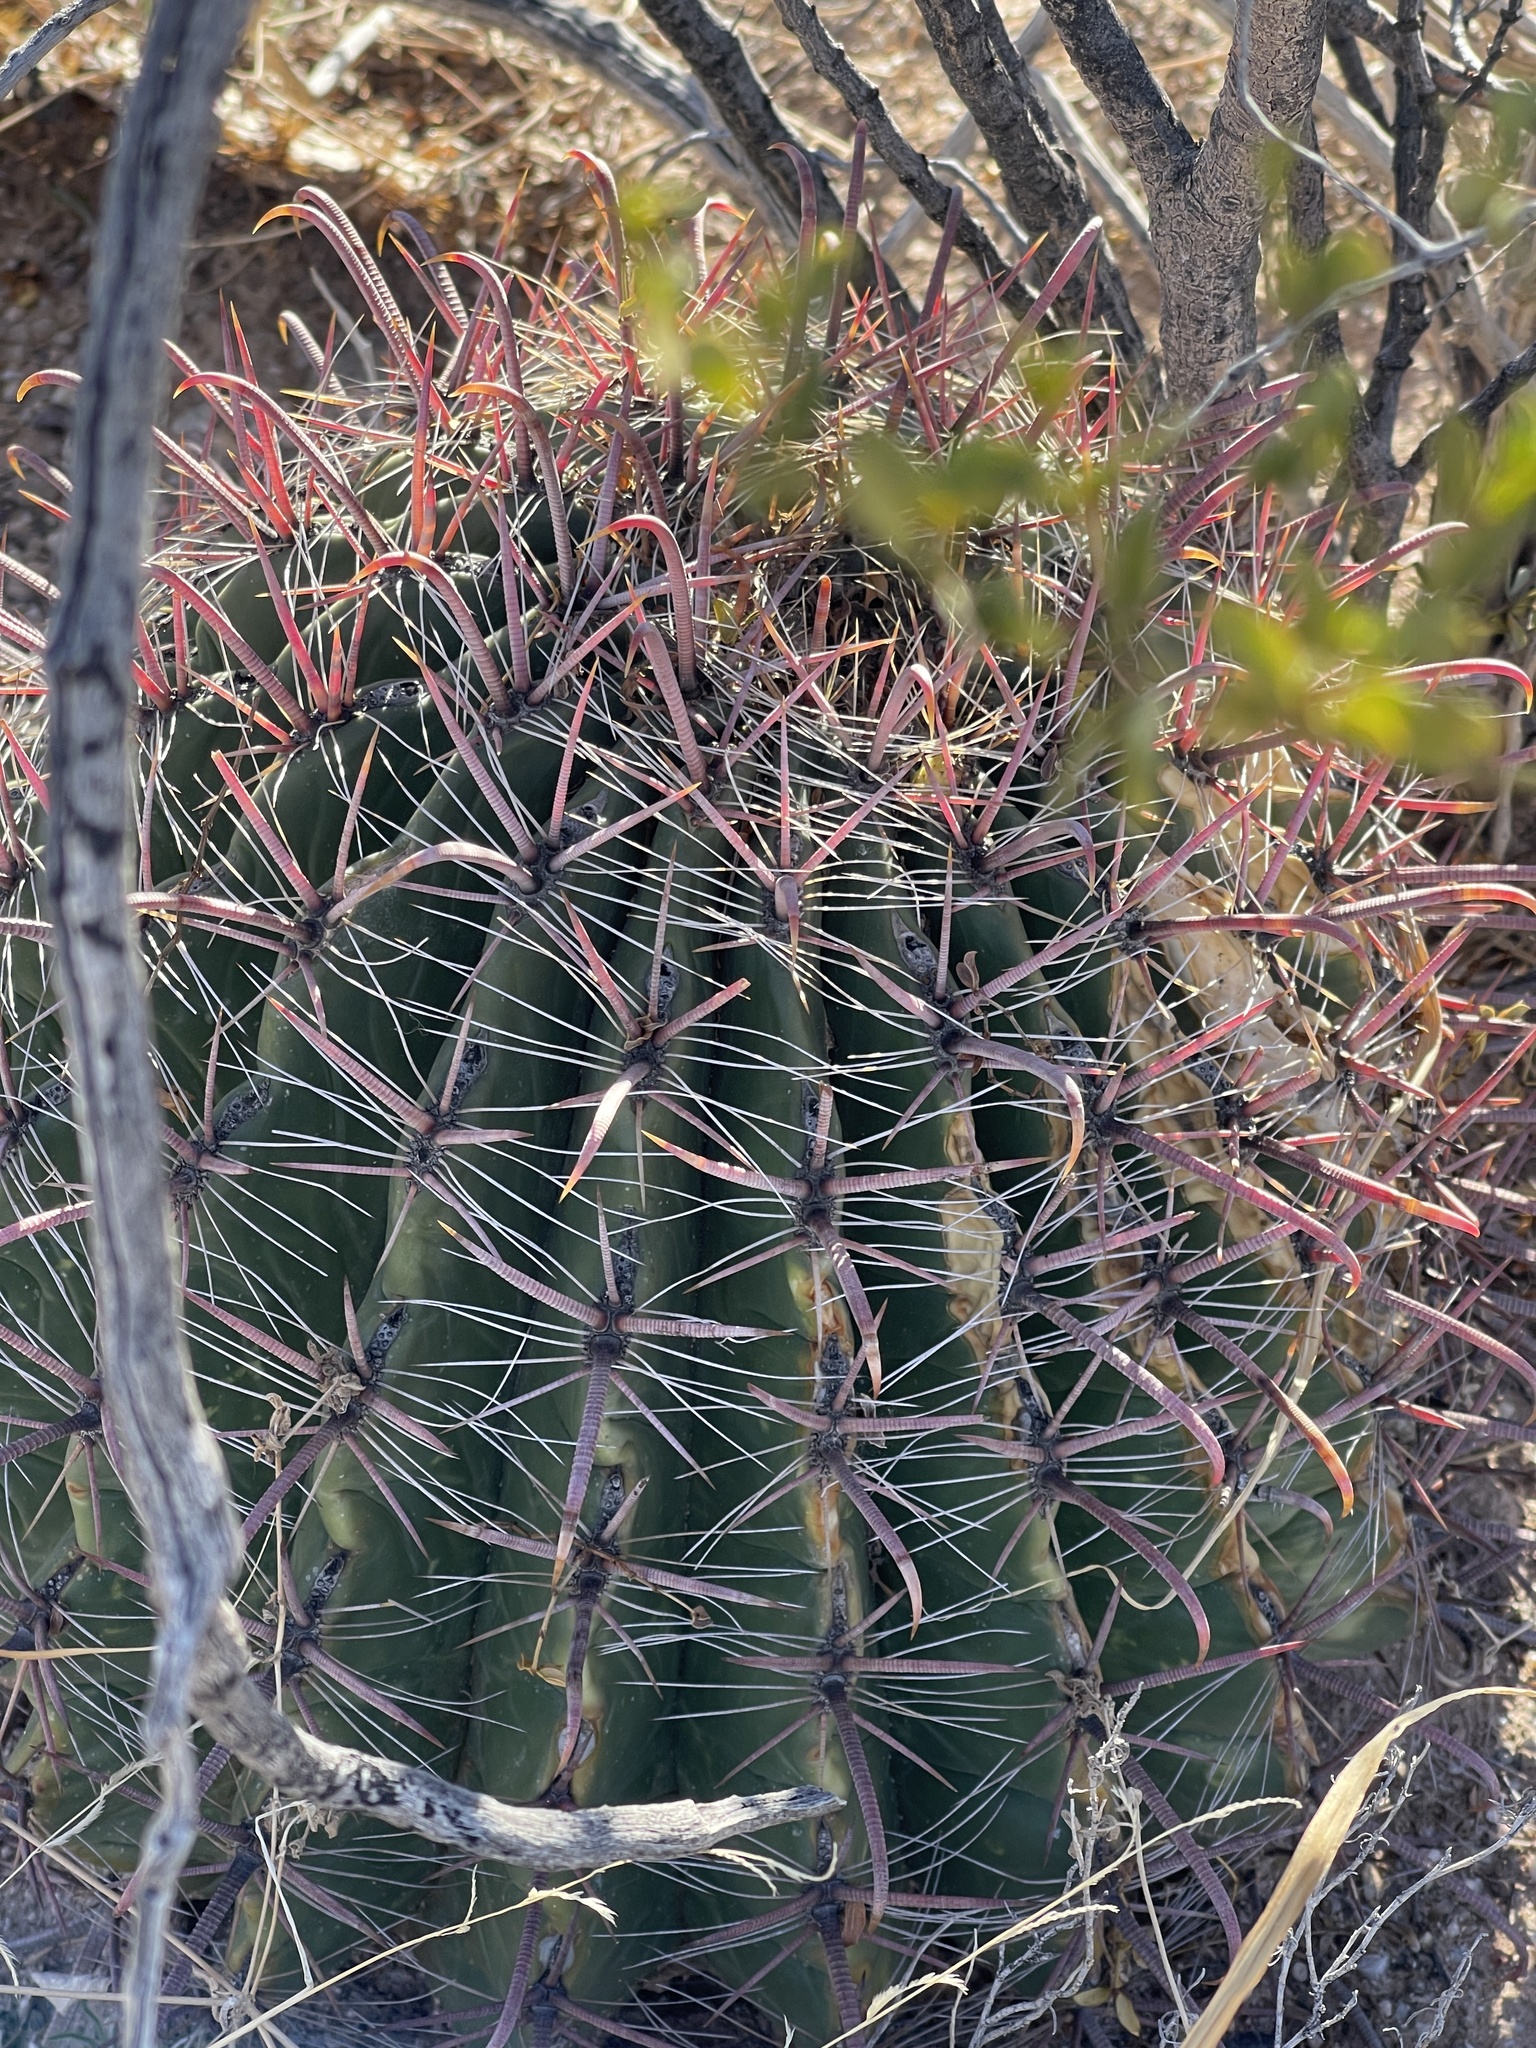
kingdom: Plantae
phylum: Tracheophyta
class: Magnoliopsida
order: Caryophyllales
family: Cactaceae
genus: Ferocactus
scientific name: Ferocactus wislizeni
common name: Candy barrel cactus
